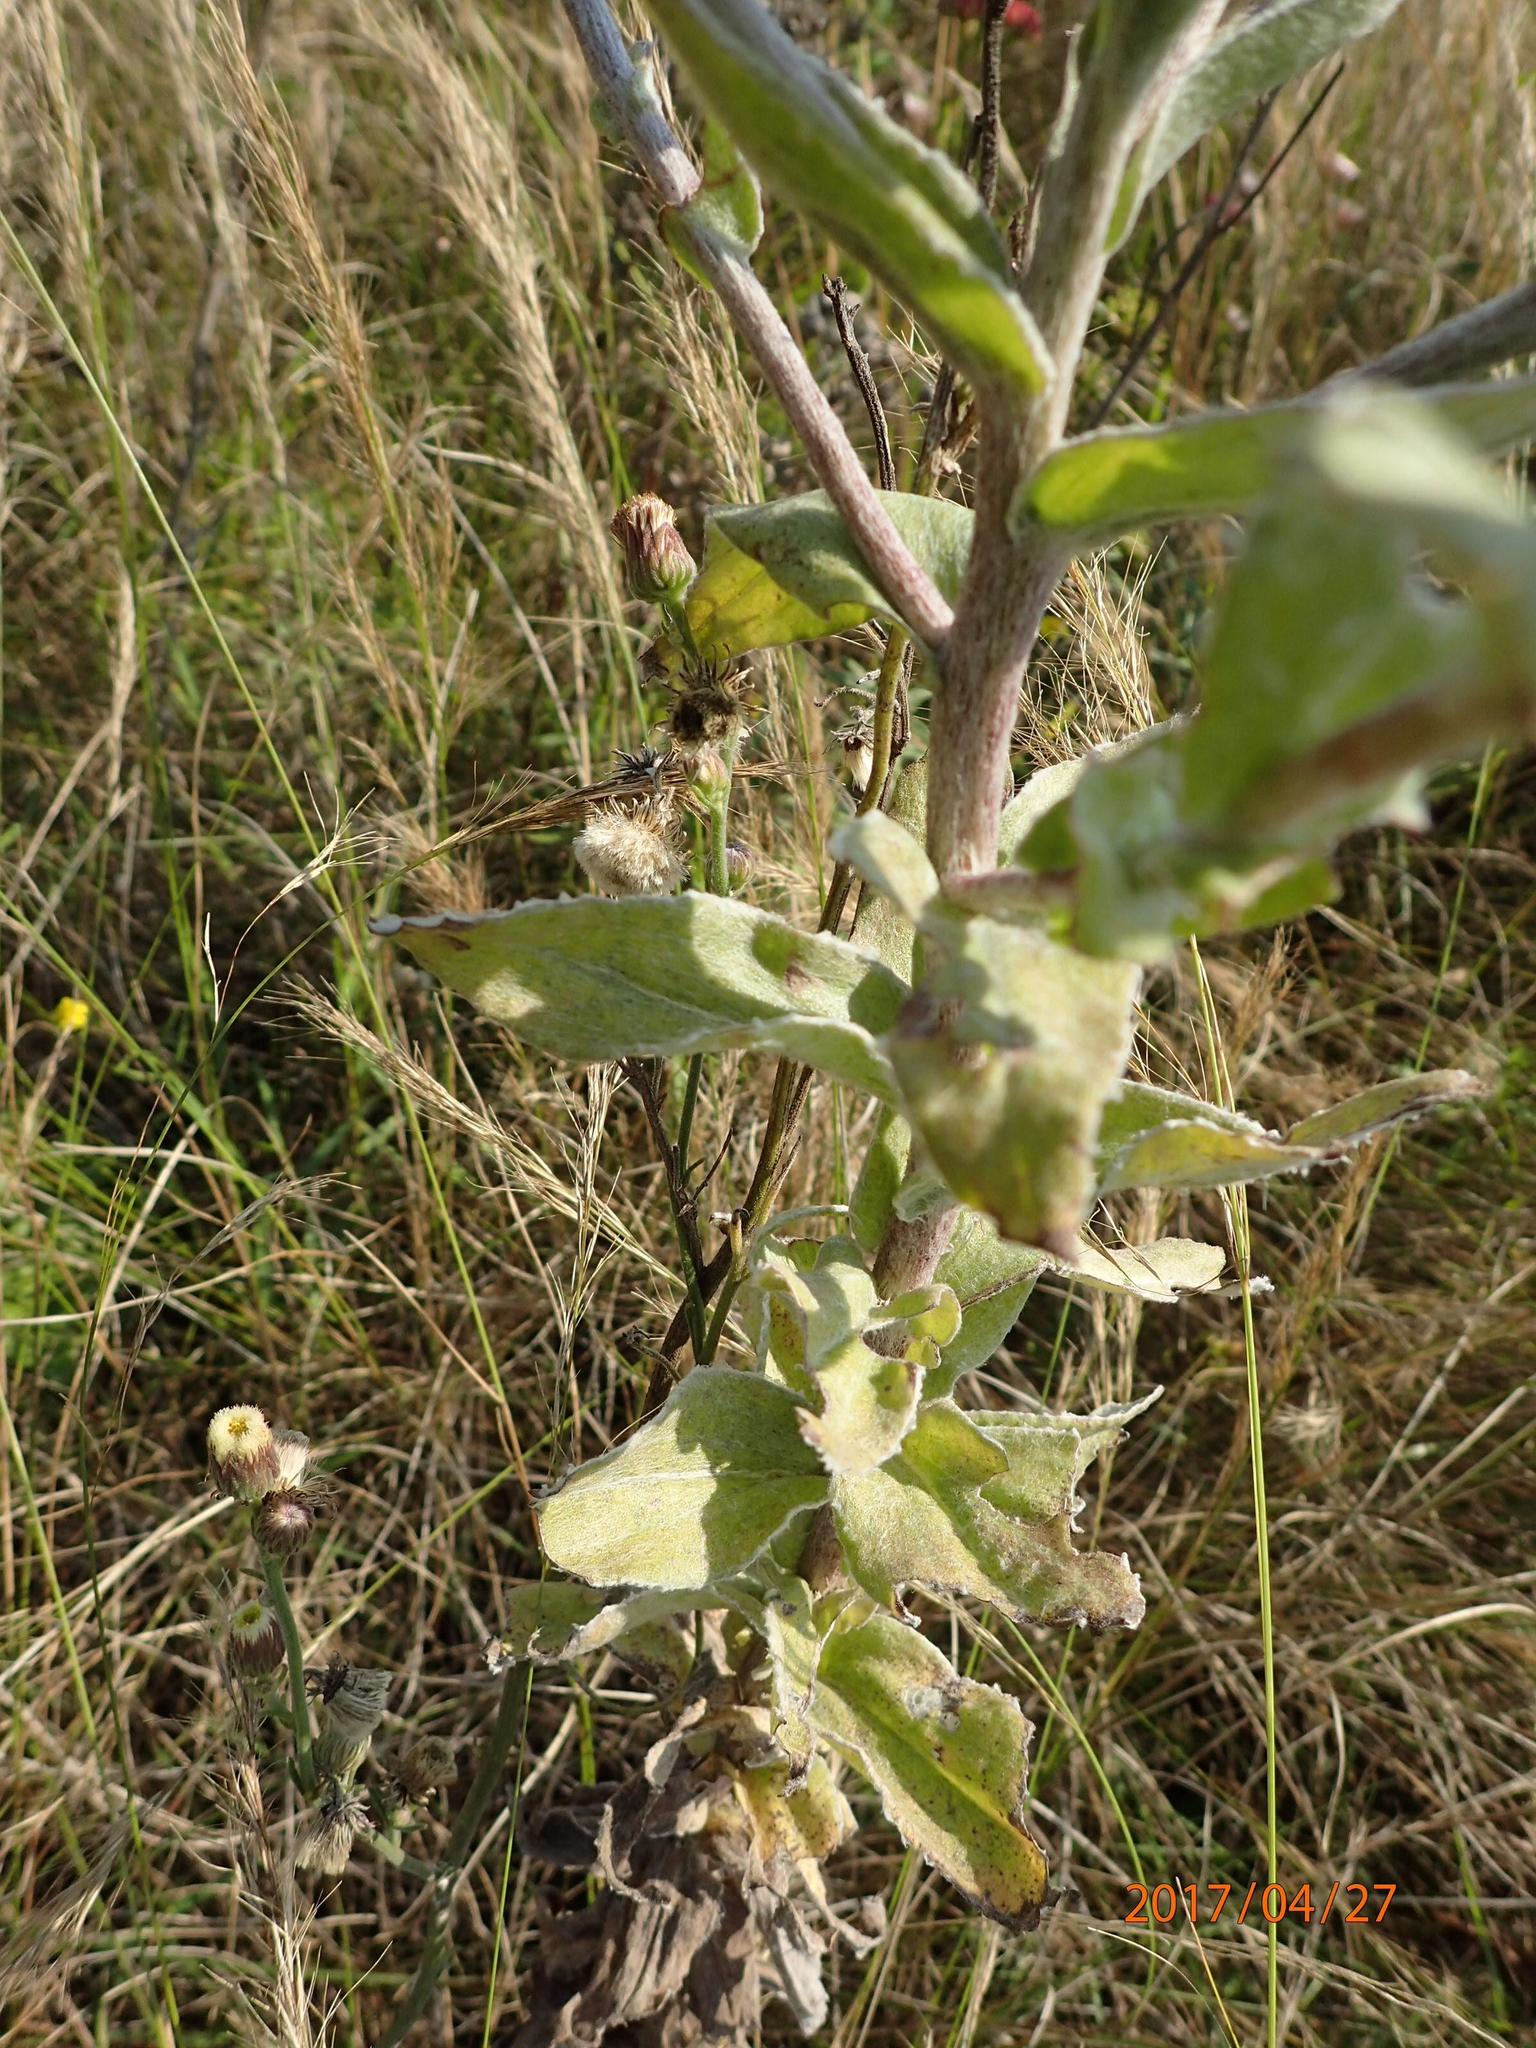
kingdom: Plantae
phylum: Tracheophyta
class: Magnoliopsida
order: Asterales
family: Asteraceae
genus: Helichrysum
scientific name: Helichrysum decorum
